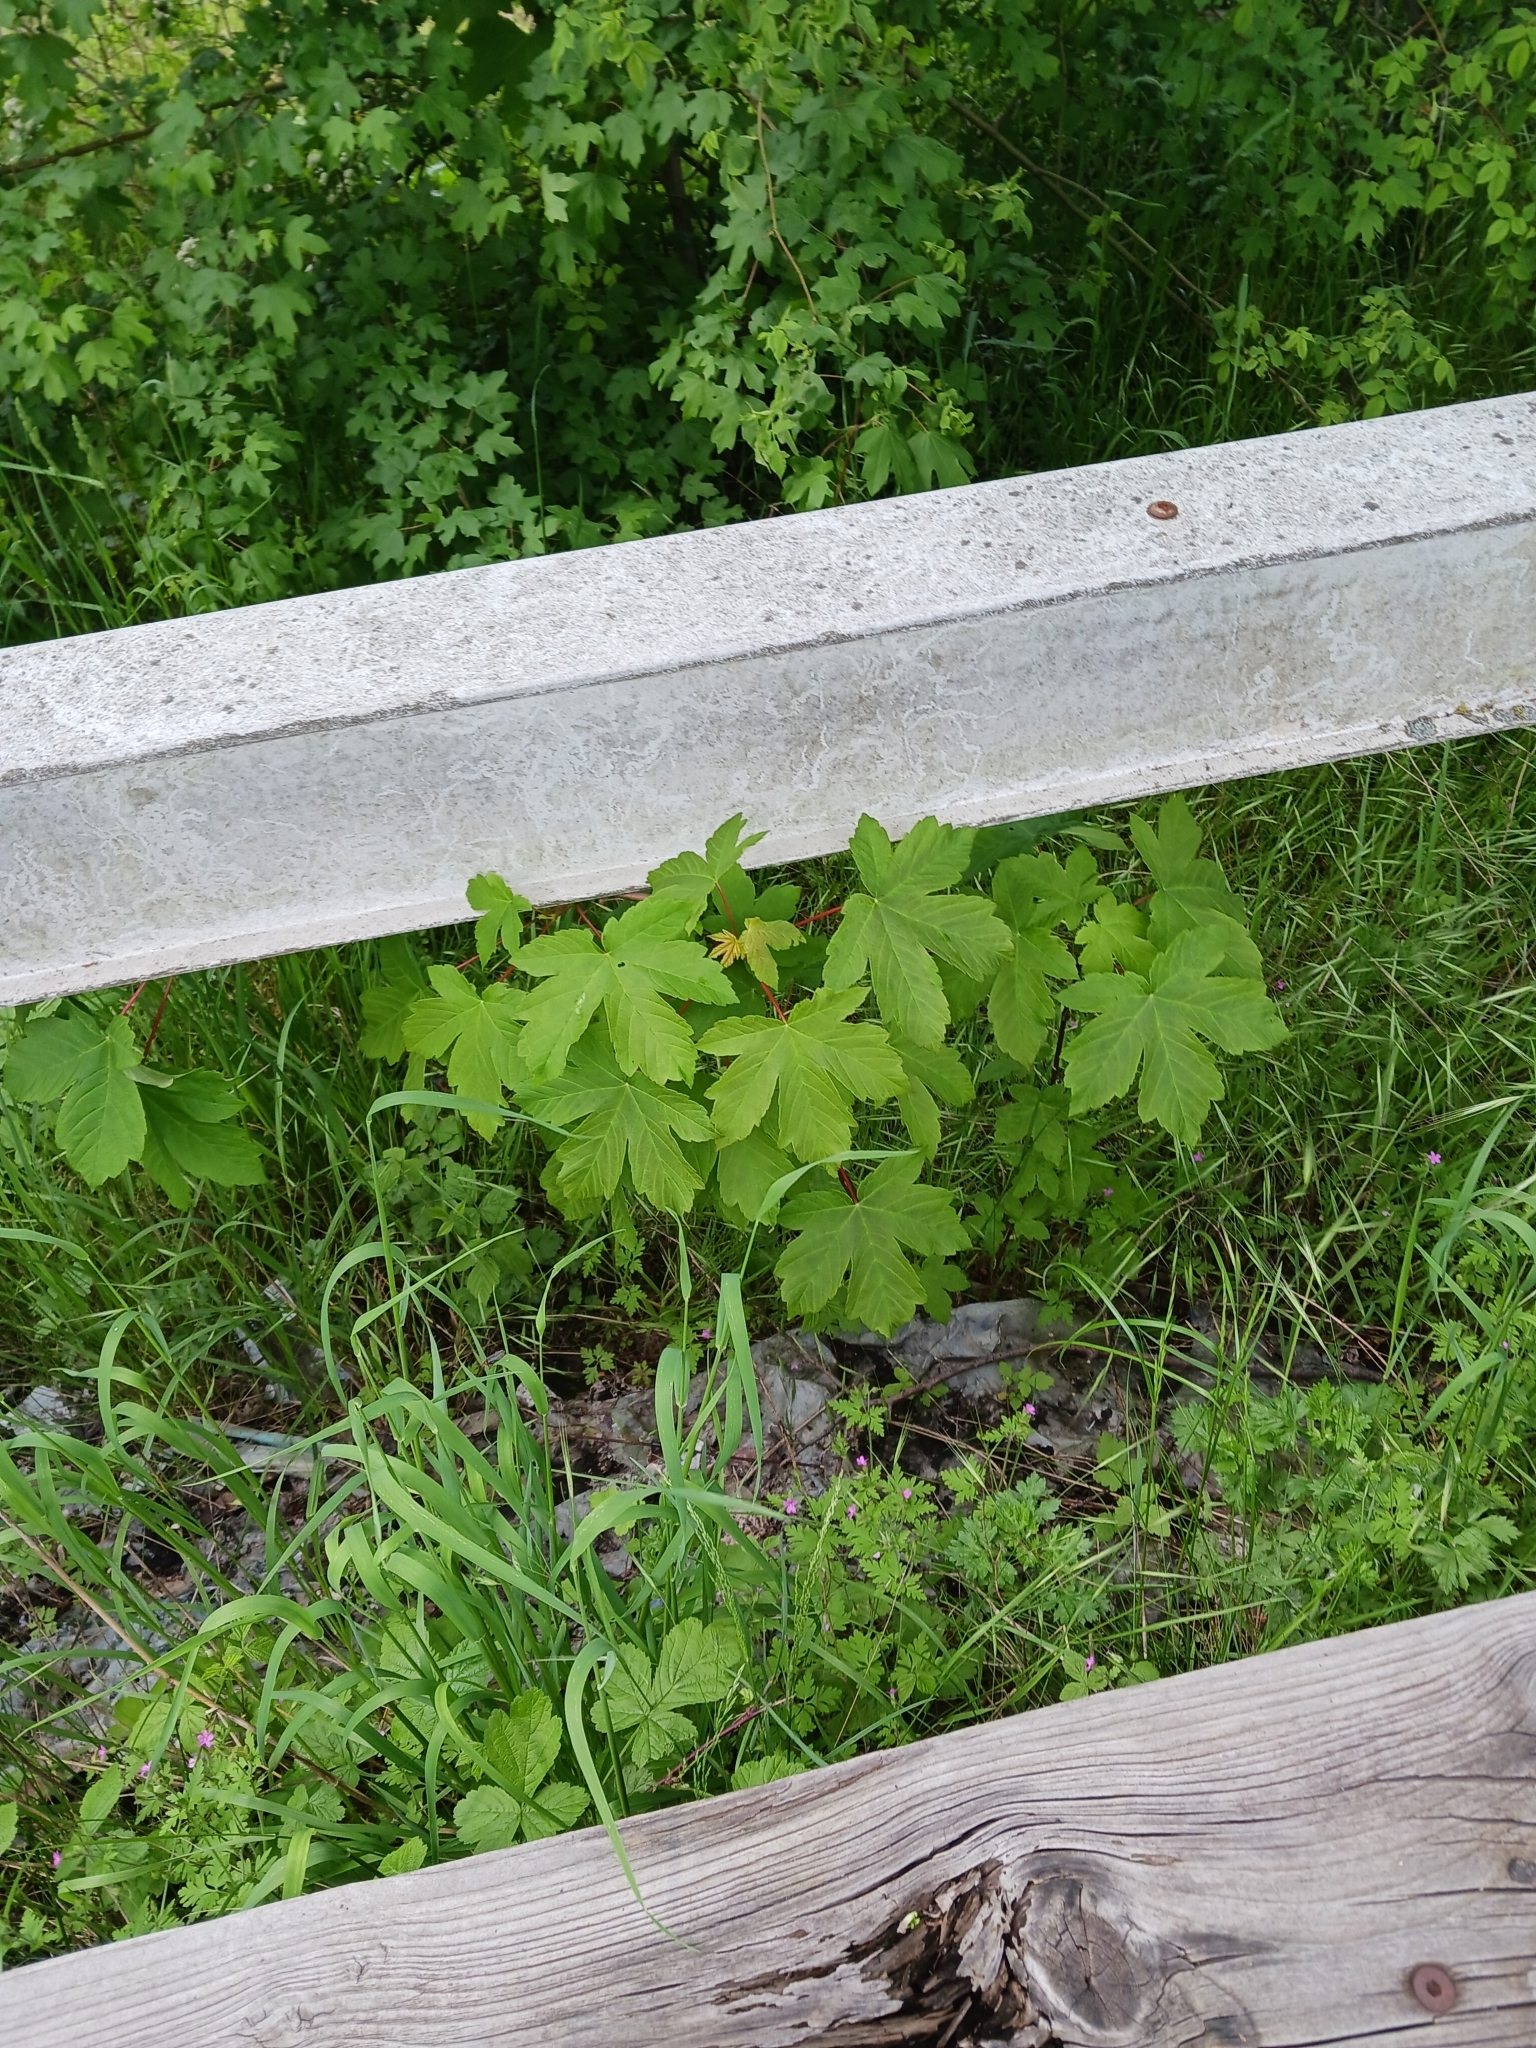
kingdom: Plantae
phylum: Tracheophyta
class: Magnoliopsida
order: Sapindales
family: Sapindaceae
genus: Acer
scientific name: Acer pseudoplatanus
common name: Sycamore
